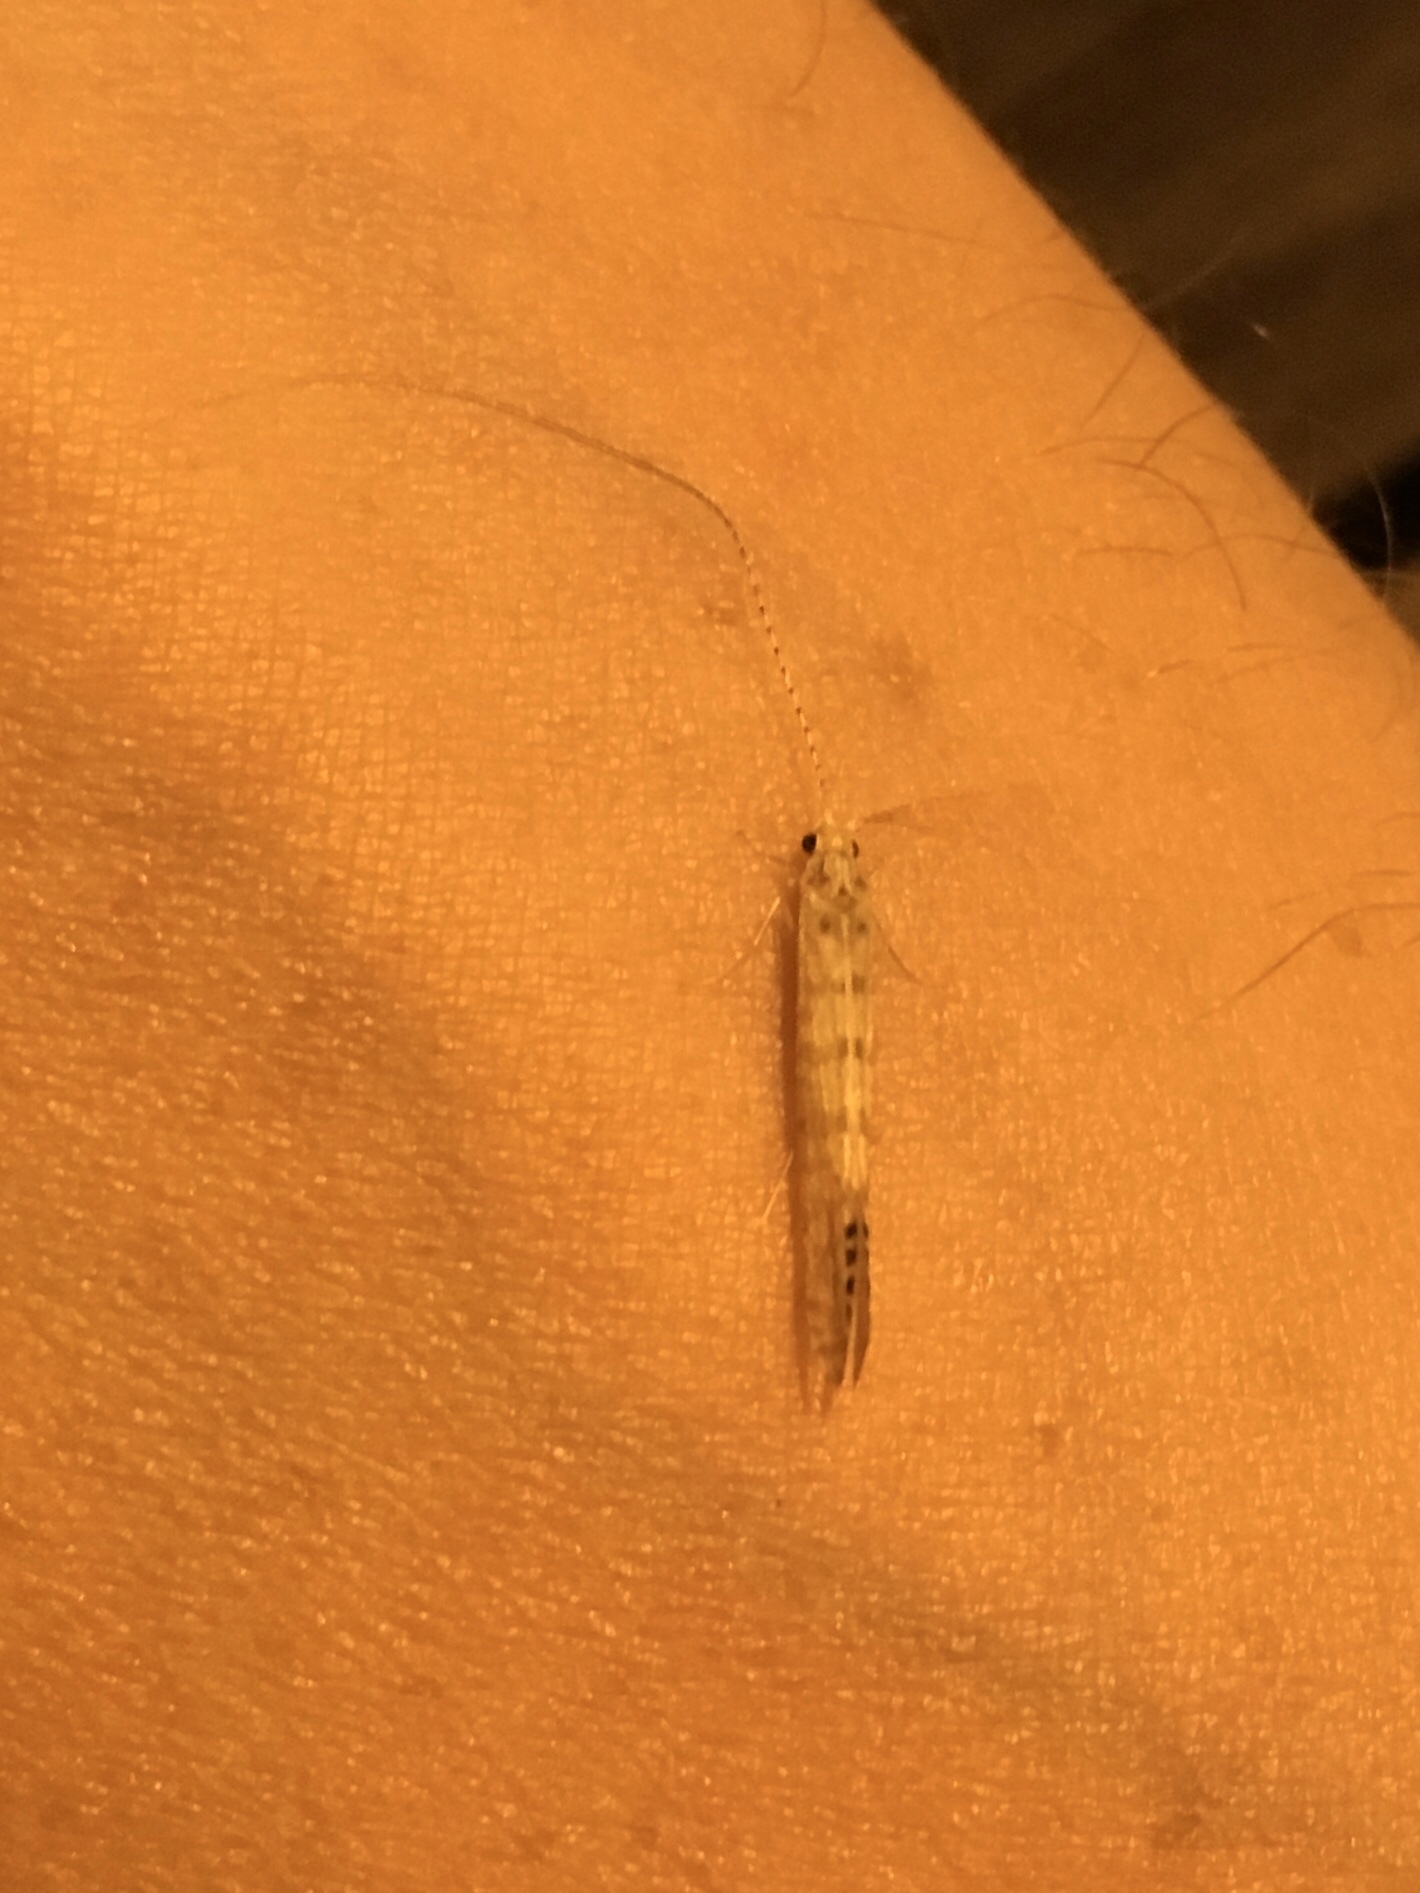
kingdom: Animalia
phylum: Arthropoda
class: Insecta
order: Trichoptera
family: Leptoceridae
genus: Nectopsyche
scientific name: Nectopsyche exquisita
